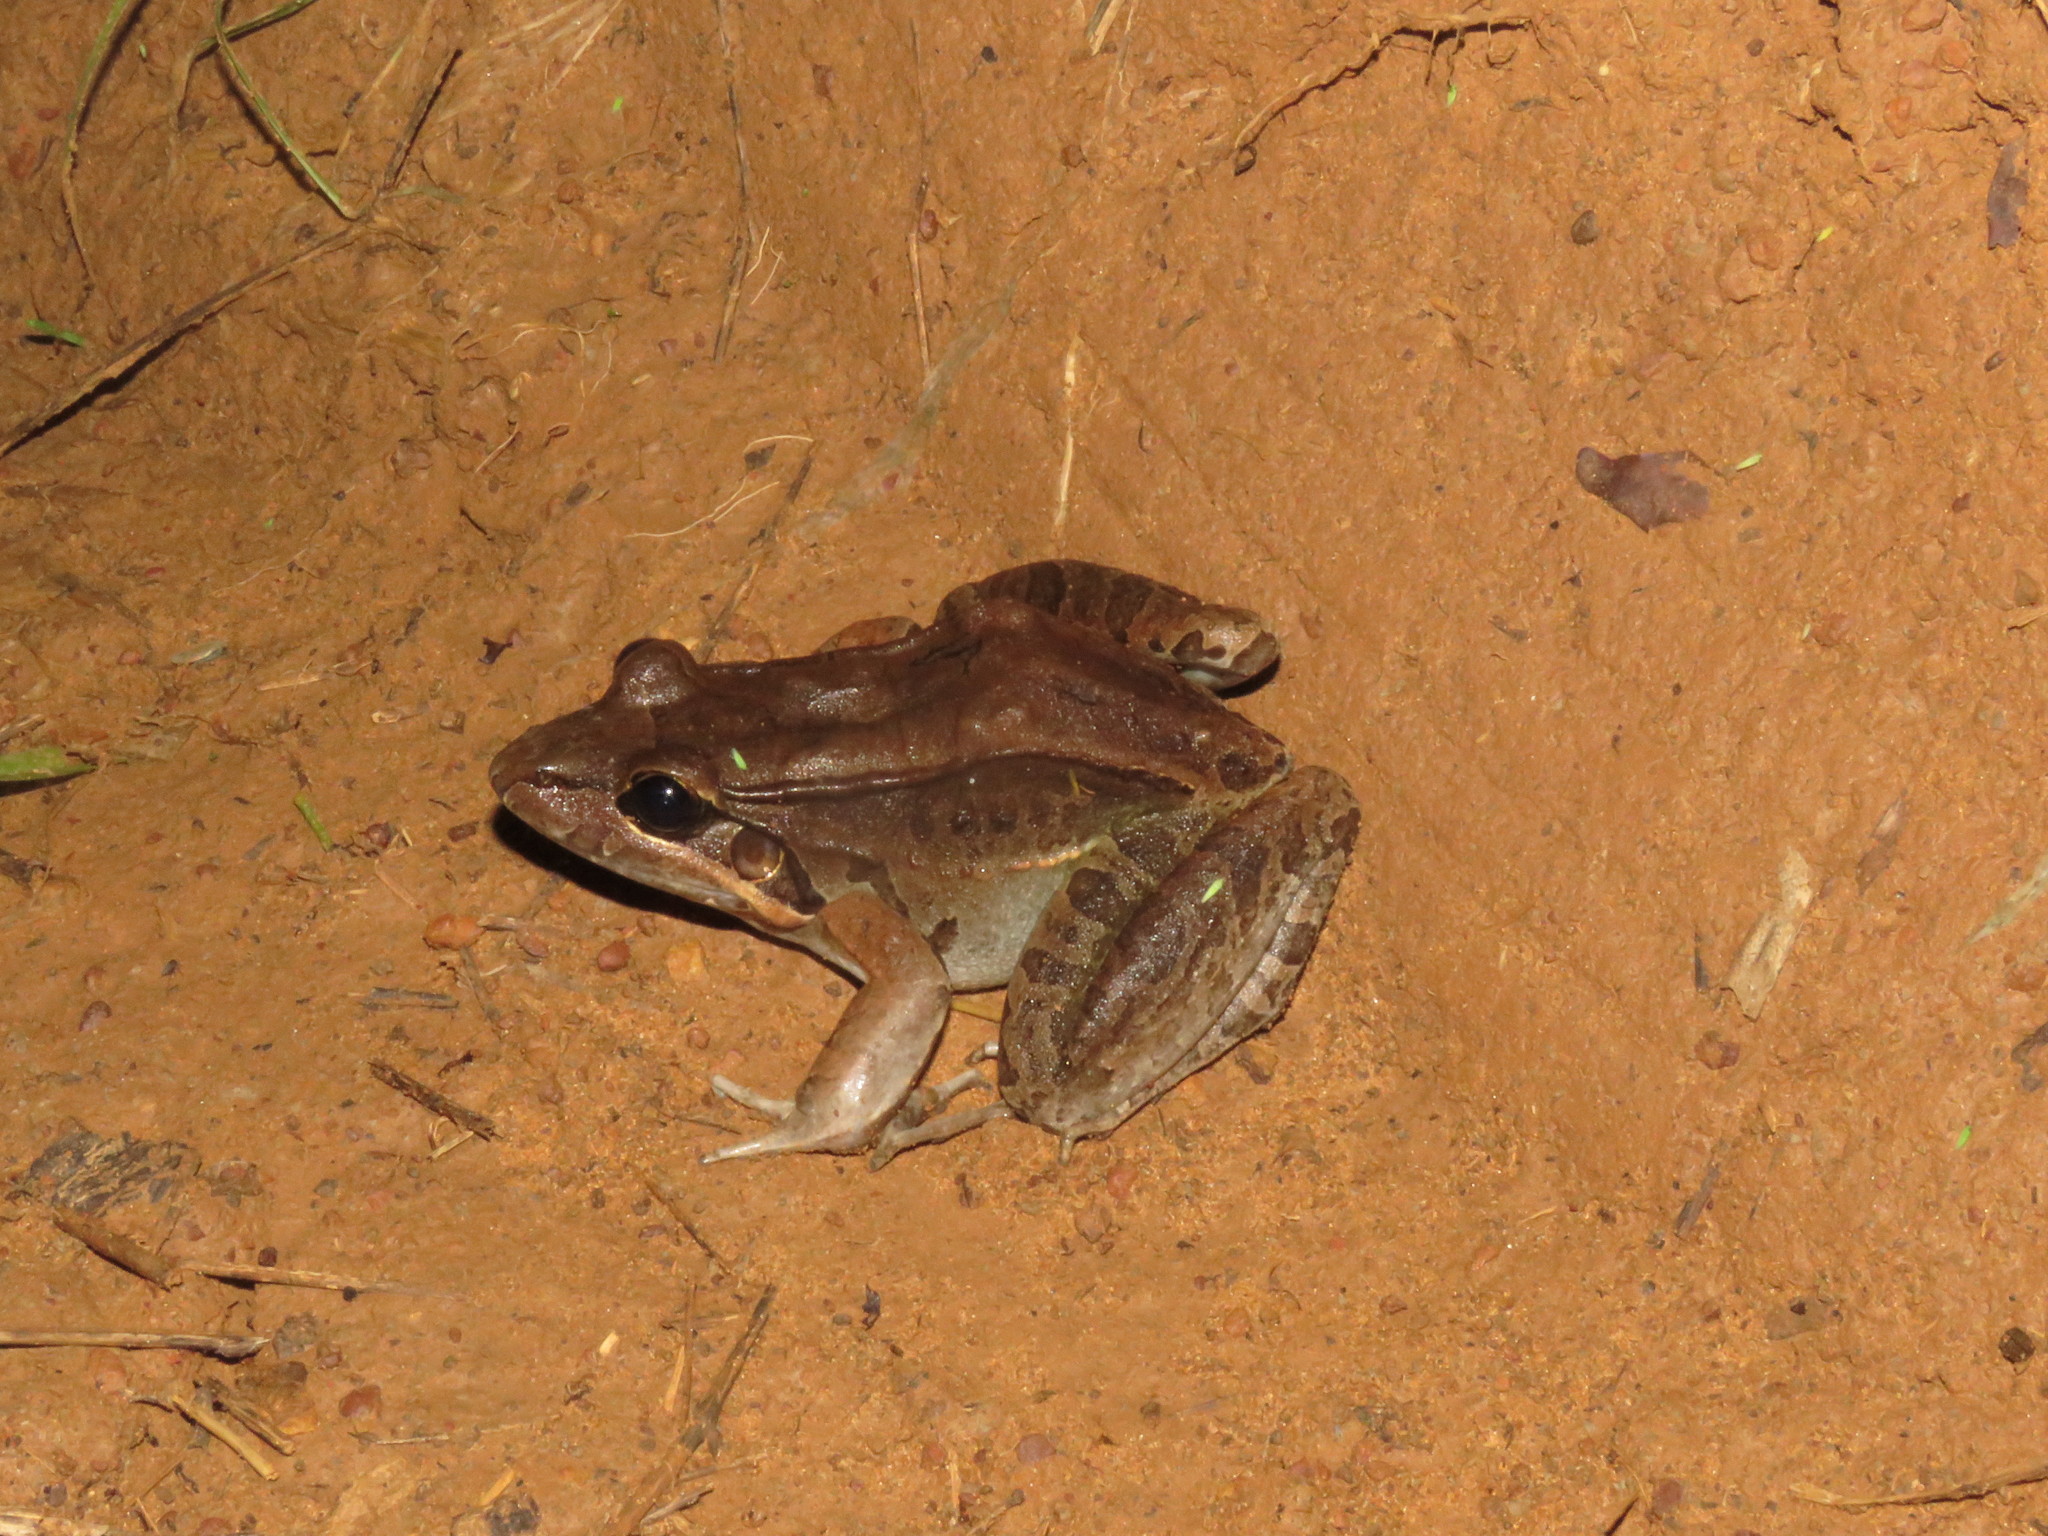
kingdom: Animalia
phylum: Chordata
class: Amphibia
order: Anura
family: Leptodactylidae
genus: Leptodactylus
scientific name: Leptodactylus bolivianus
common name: Bolivian white-lipped frog
